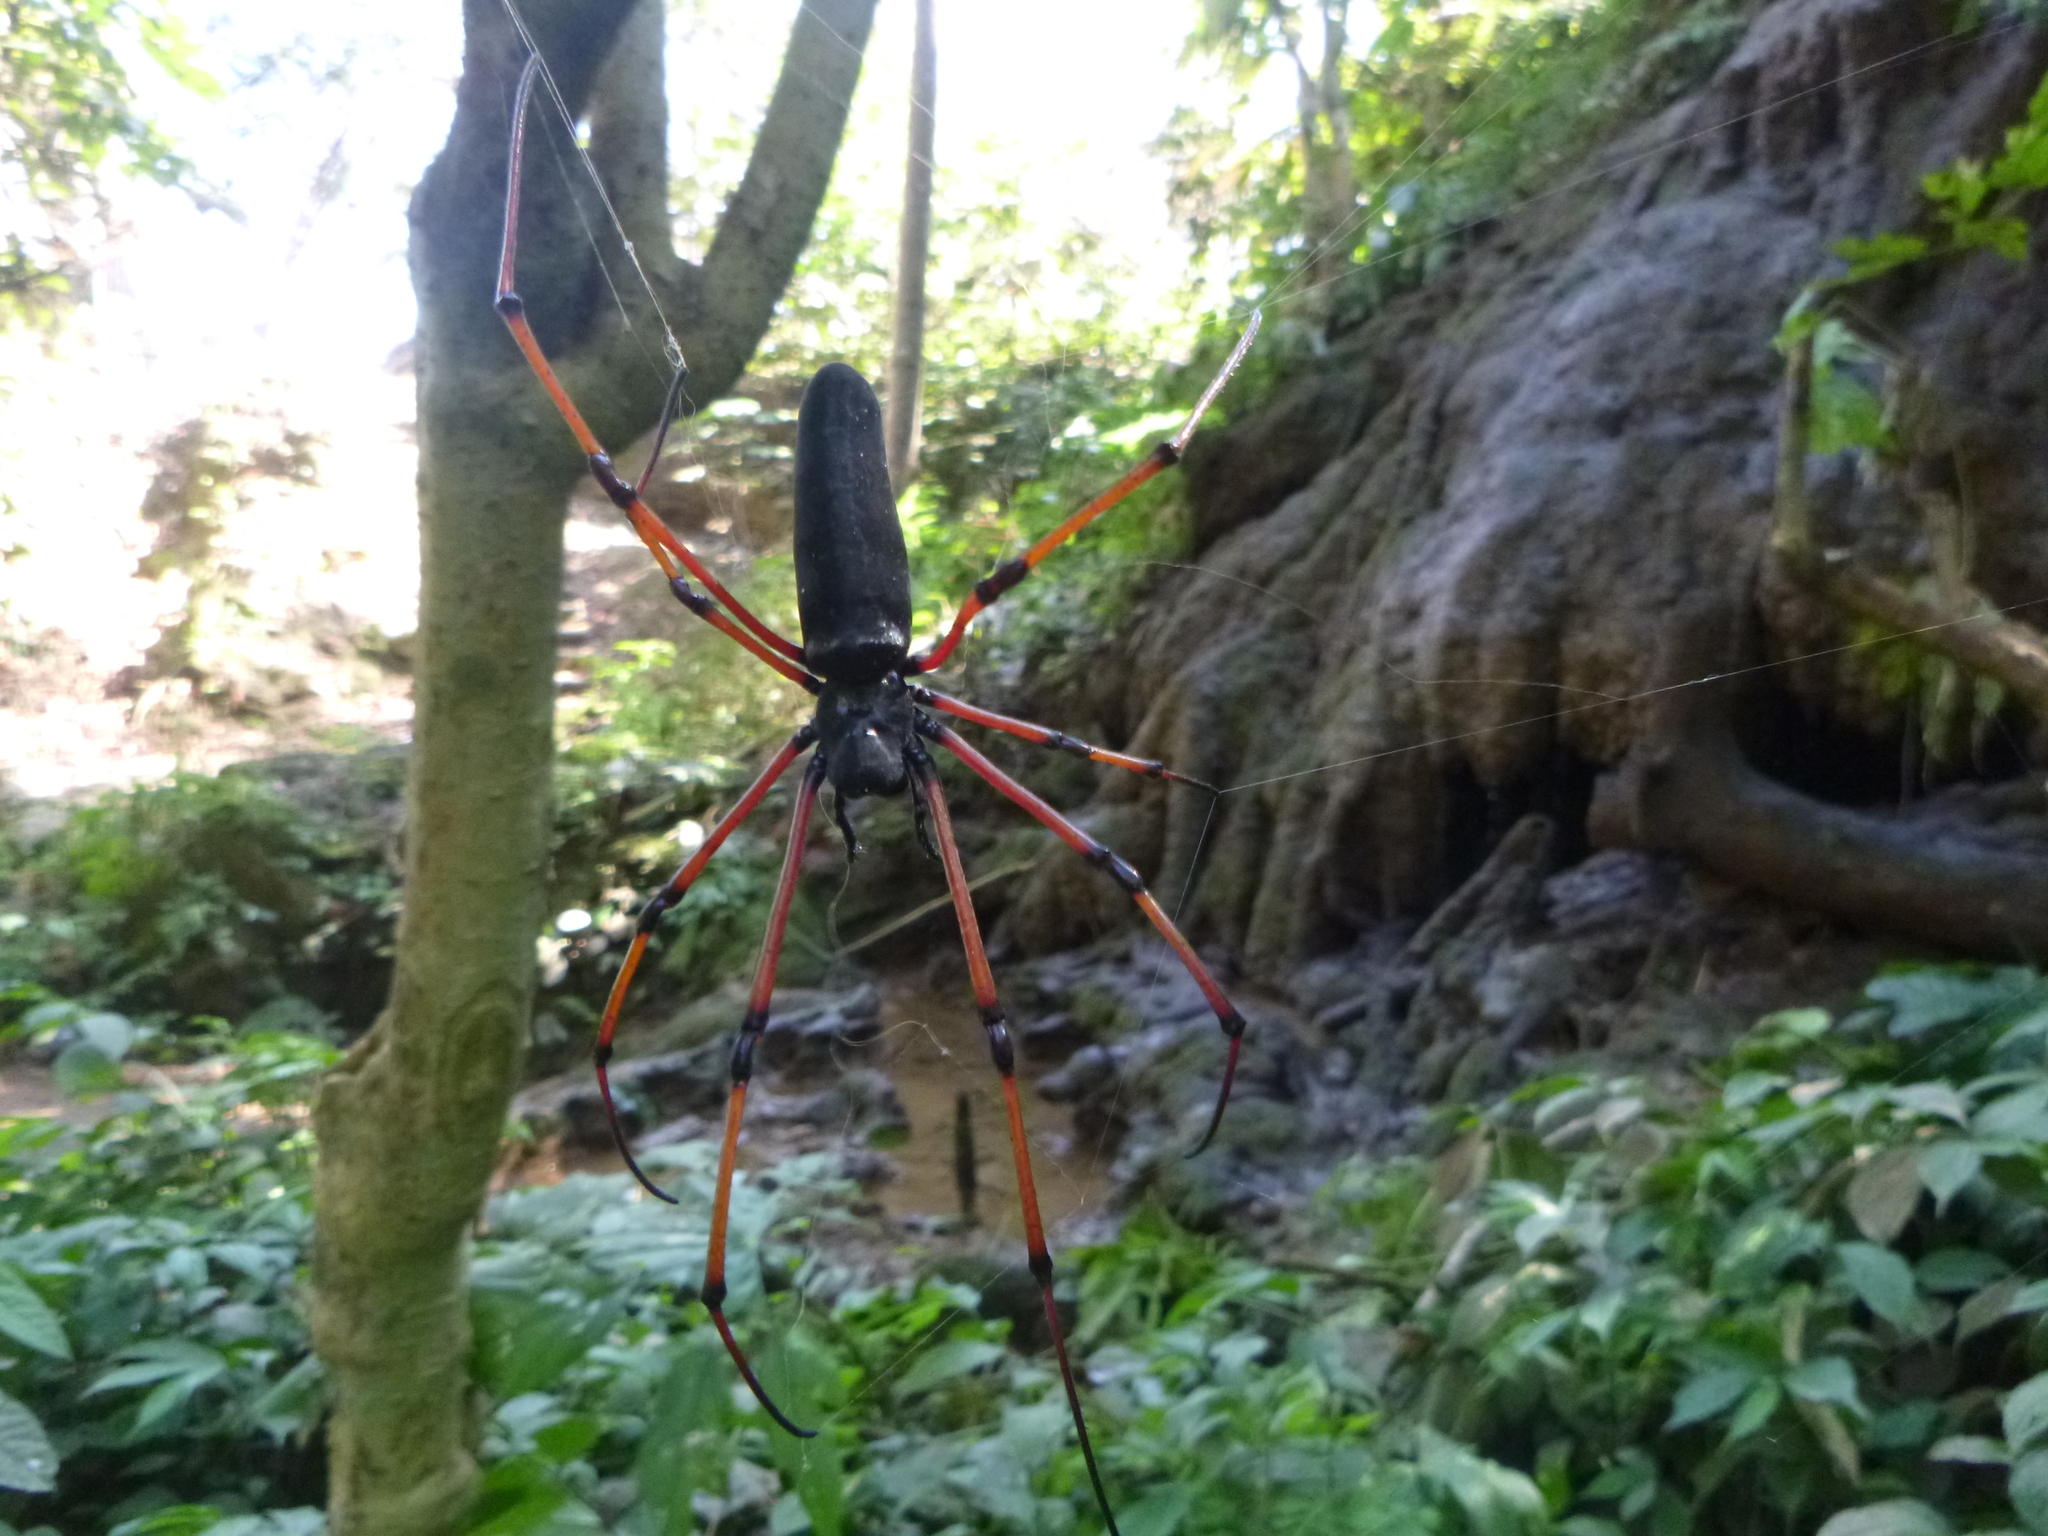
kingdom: Animalia
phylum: Arthropoda
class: Arachnida
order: Araneae
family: Araneidae
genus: Nephila
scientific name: Nephila kuhli
